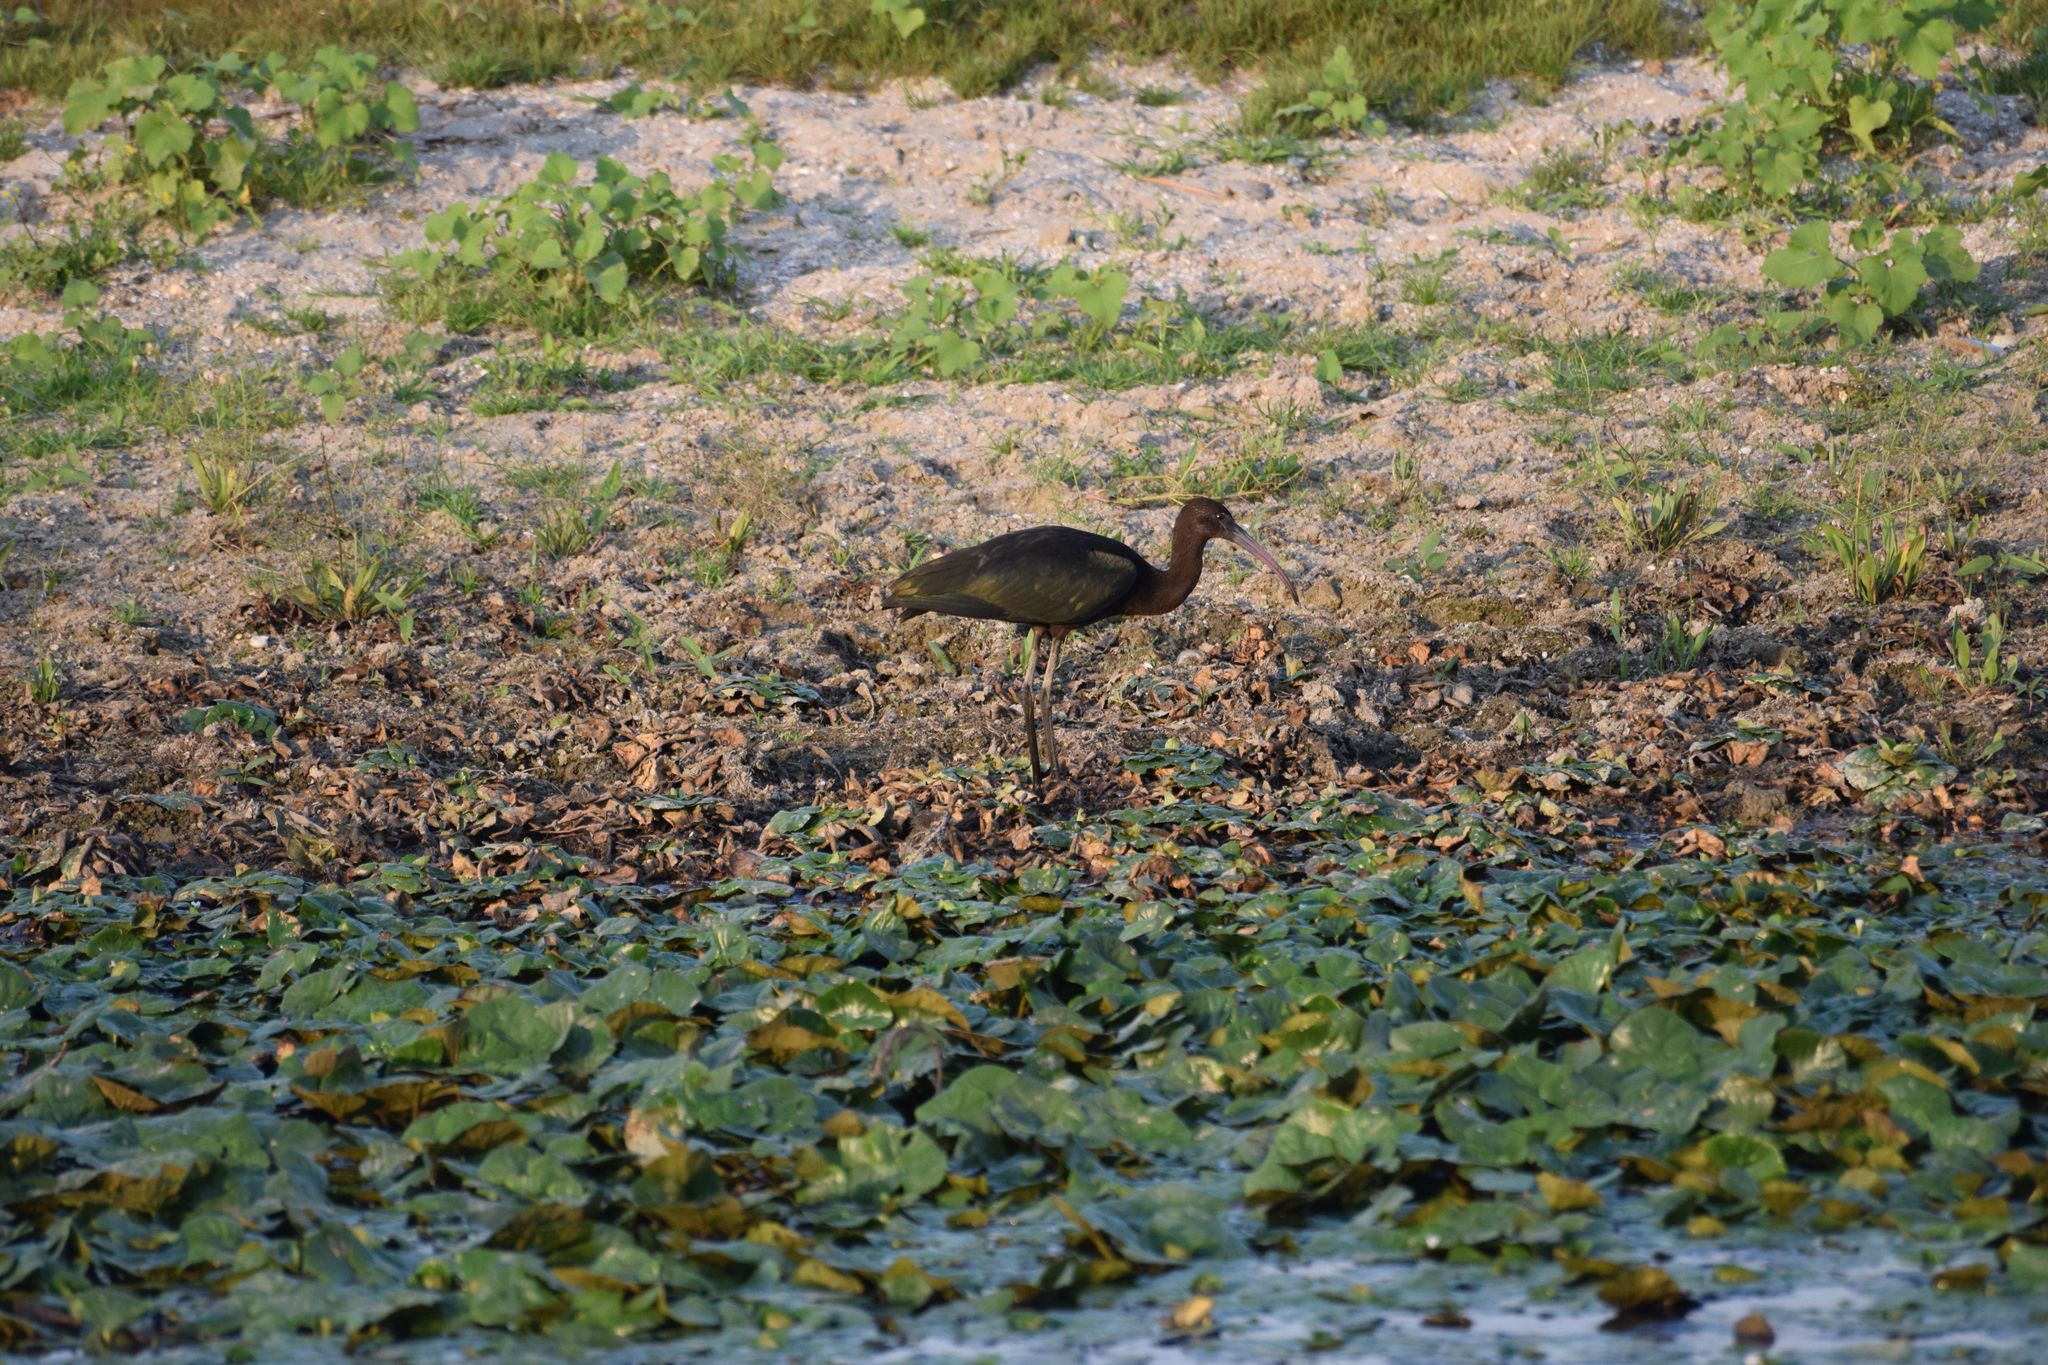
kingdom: Animalia
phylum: Chordata
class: Aves
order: Pelecaniformes
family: Threskiornithidae
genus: Plegadis
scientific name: Plegadis falcinellus
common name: Glossy ibis
